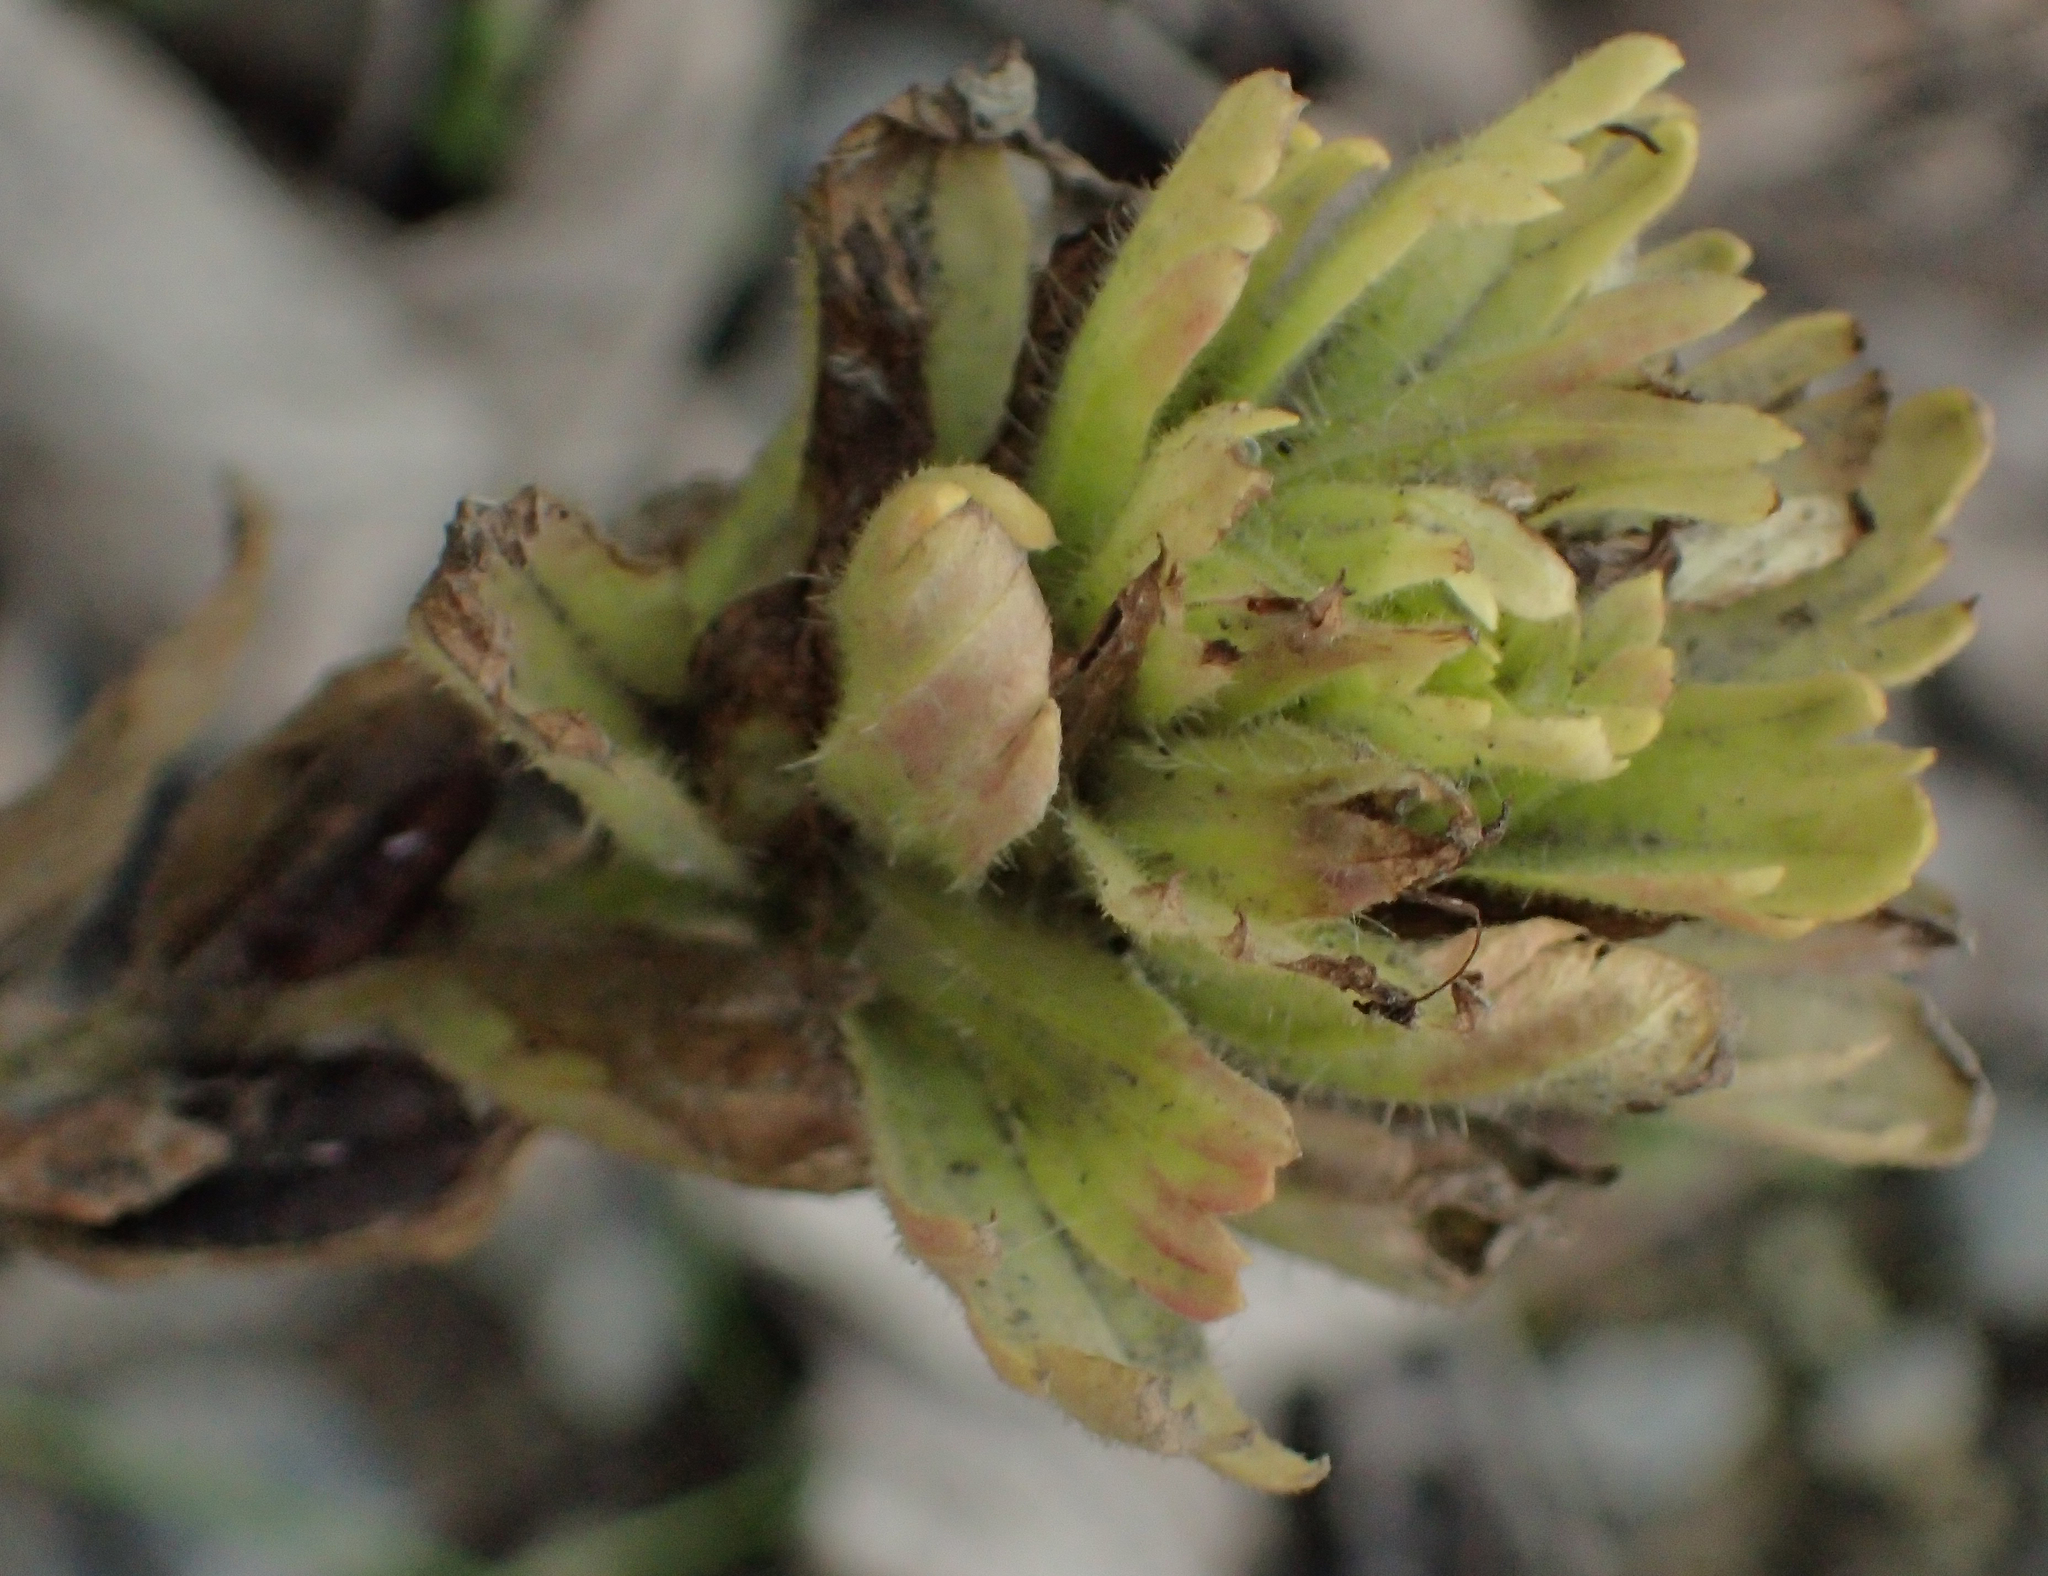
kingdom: Plantae
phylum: Tracheophyta
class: Magnoliopsida
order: Lamiales
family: Orobanchaceae
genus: Castilleja
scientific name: Castilleja unalaschcensis
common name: Unalaska paintbrush
